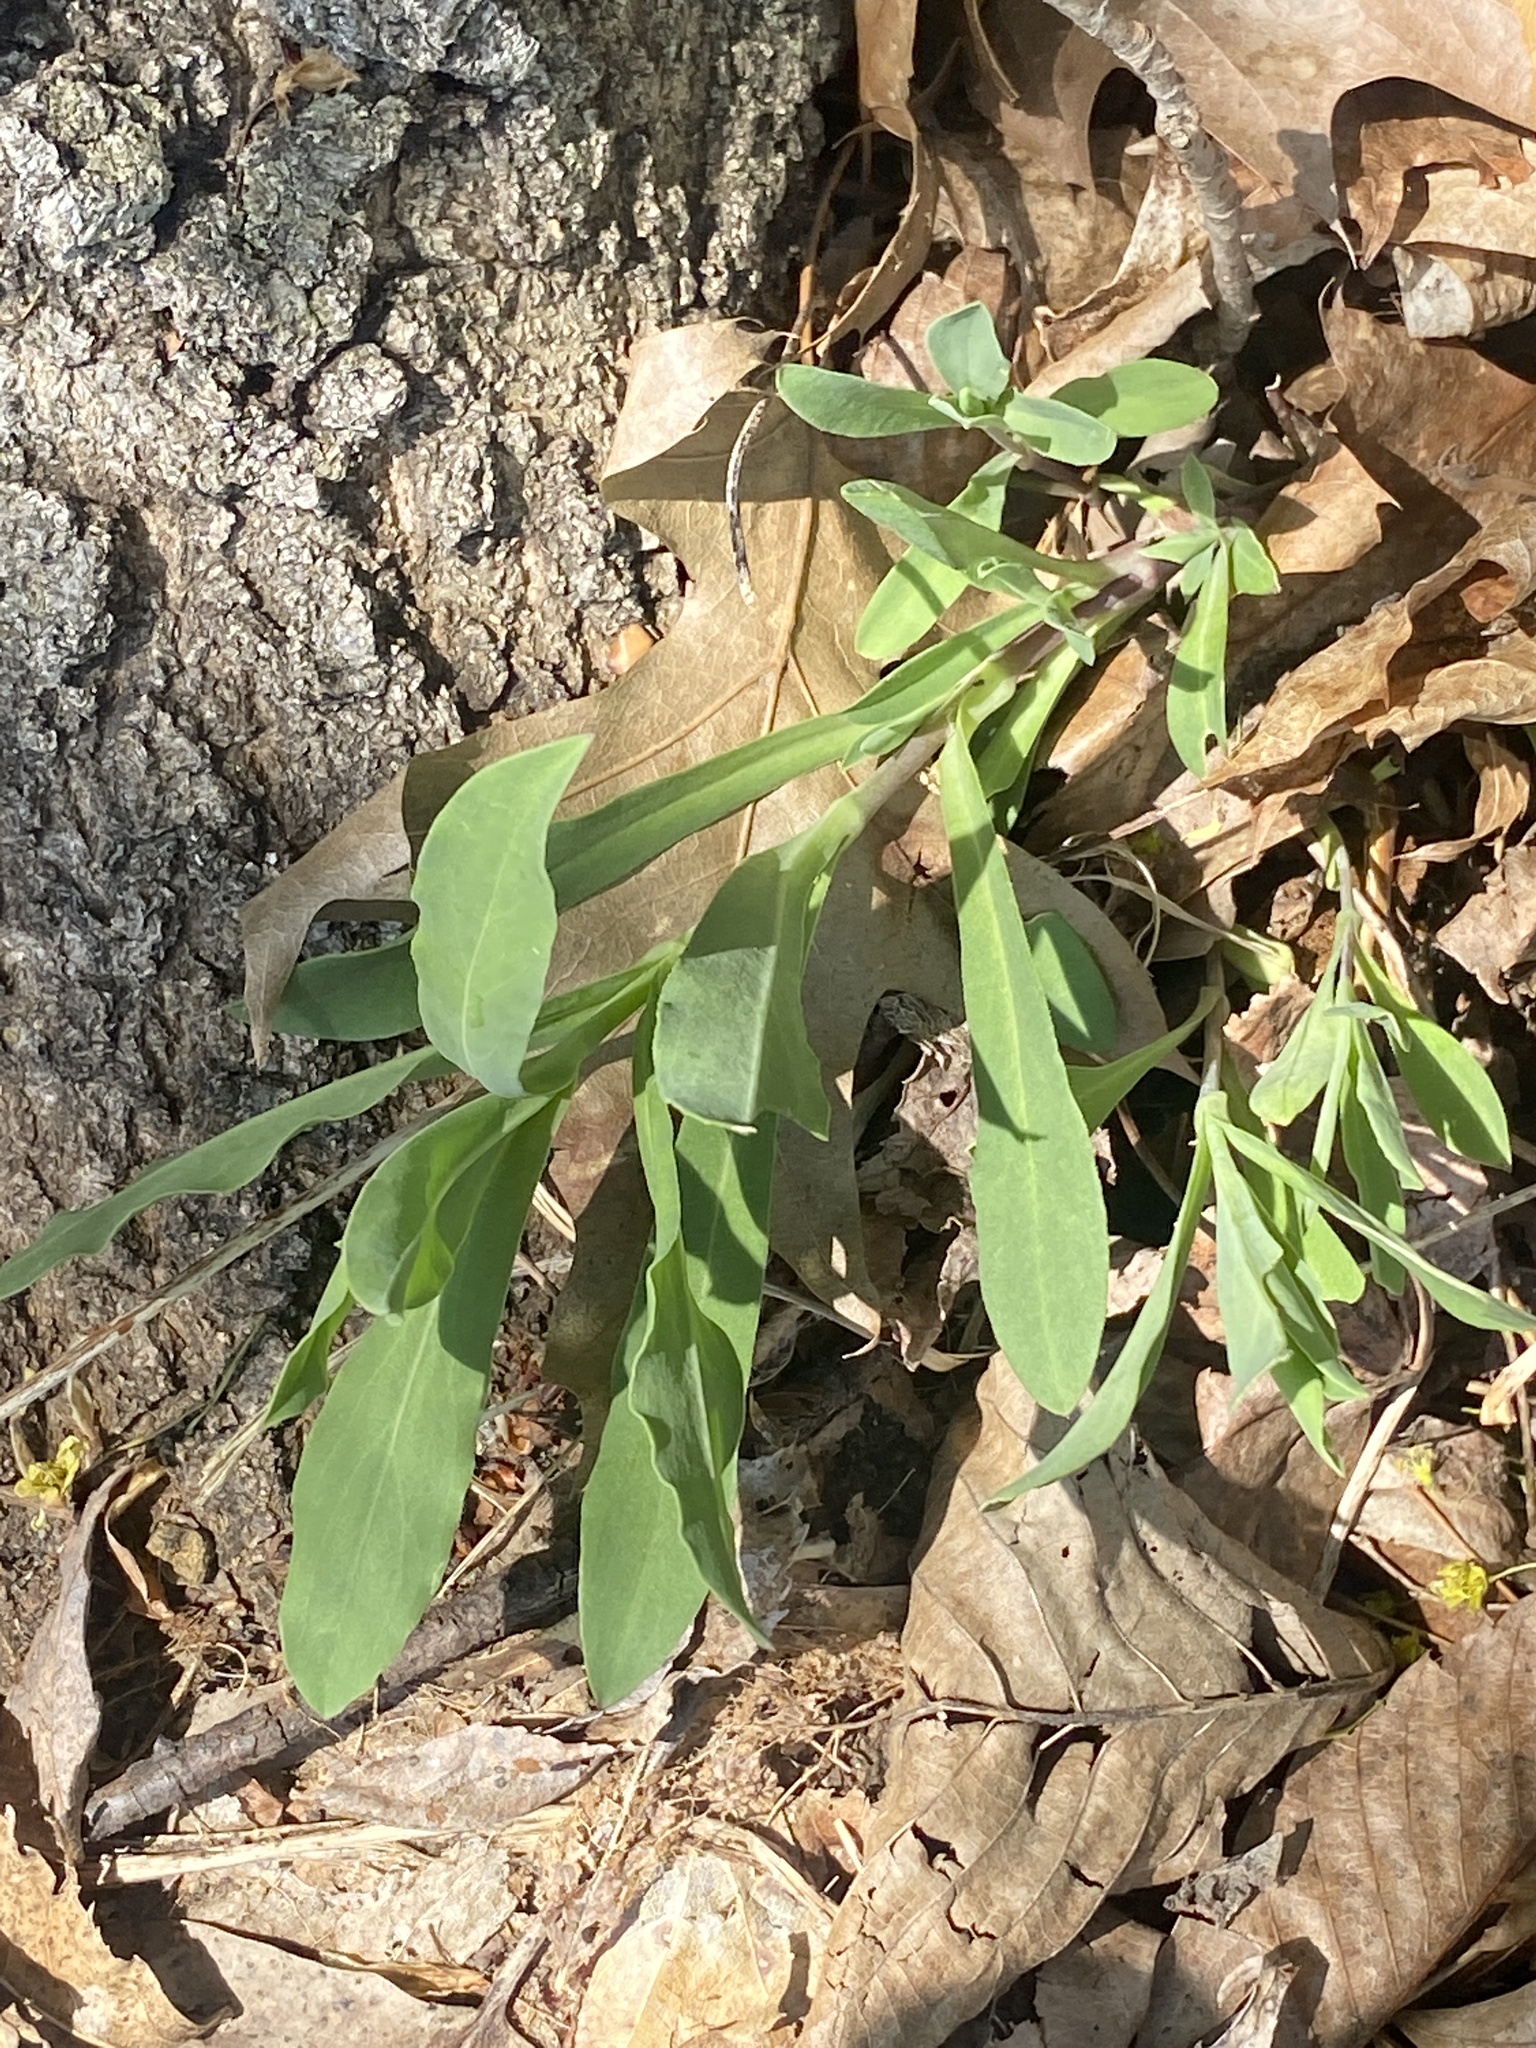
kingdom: Plantae
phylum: Tracheophyta
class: Magnoliopsida
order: Caryophyllales
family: Caryophyllaceae
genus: Silene
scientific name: Silene vulgaris
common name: Bladder campion
